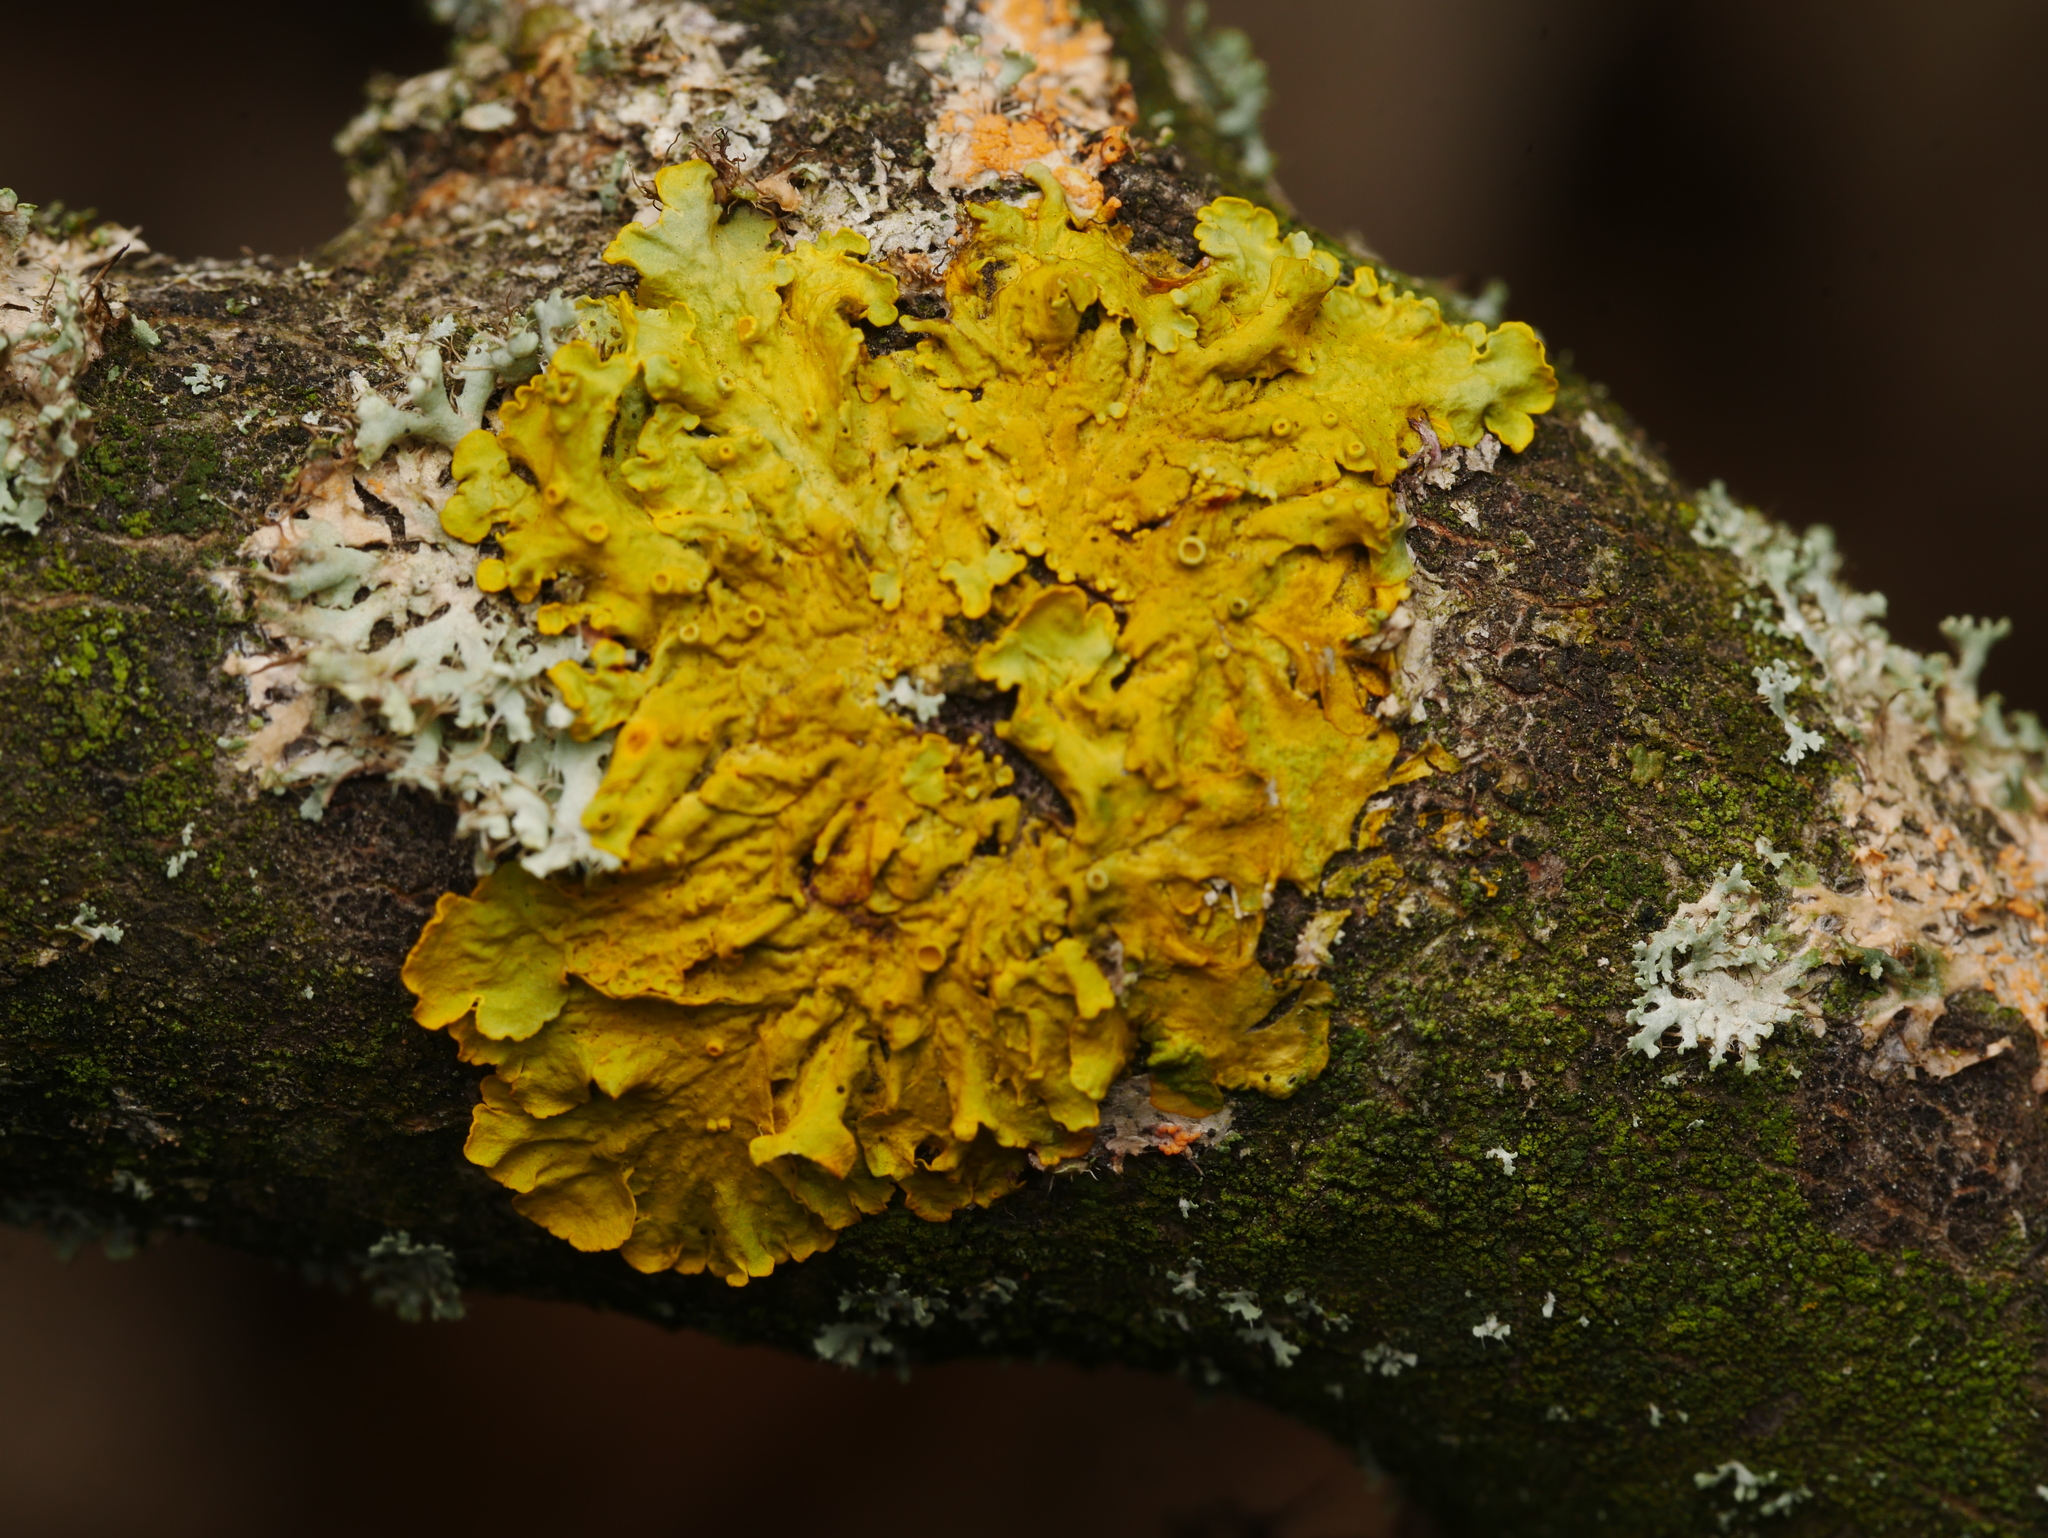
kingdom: Fungi
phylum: Ascomycota
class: Lecanoromycetes
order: Teloschistales
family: Teloschistaceae
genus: Xanthoria
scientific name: Xanthoria parietina
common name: Common orange lichen
